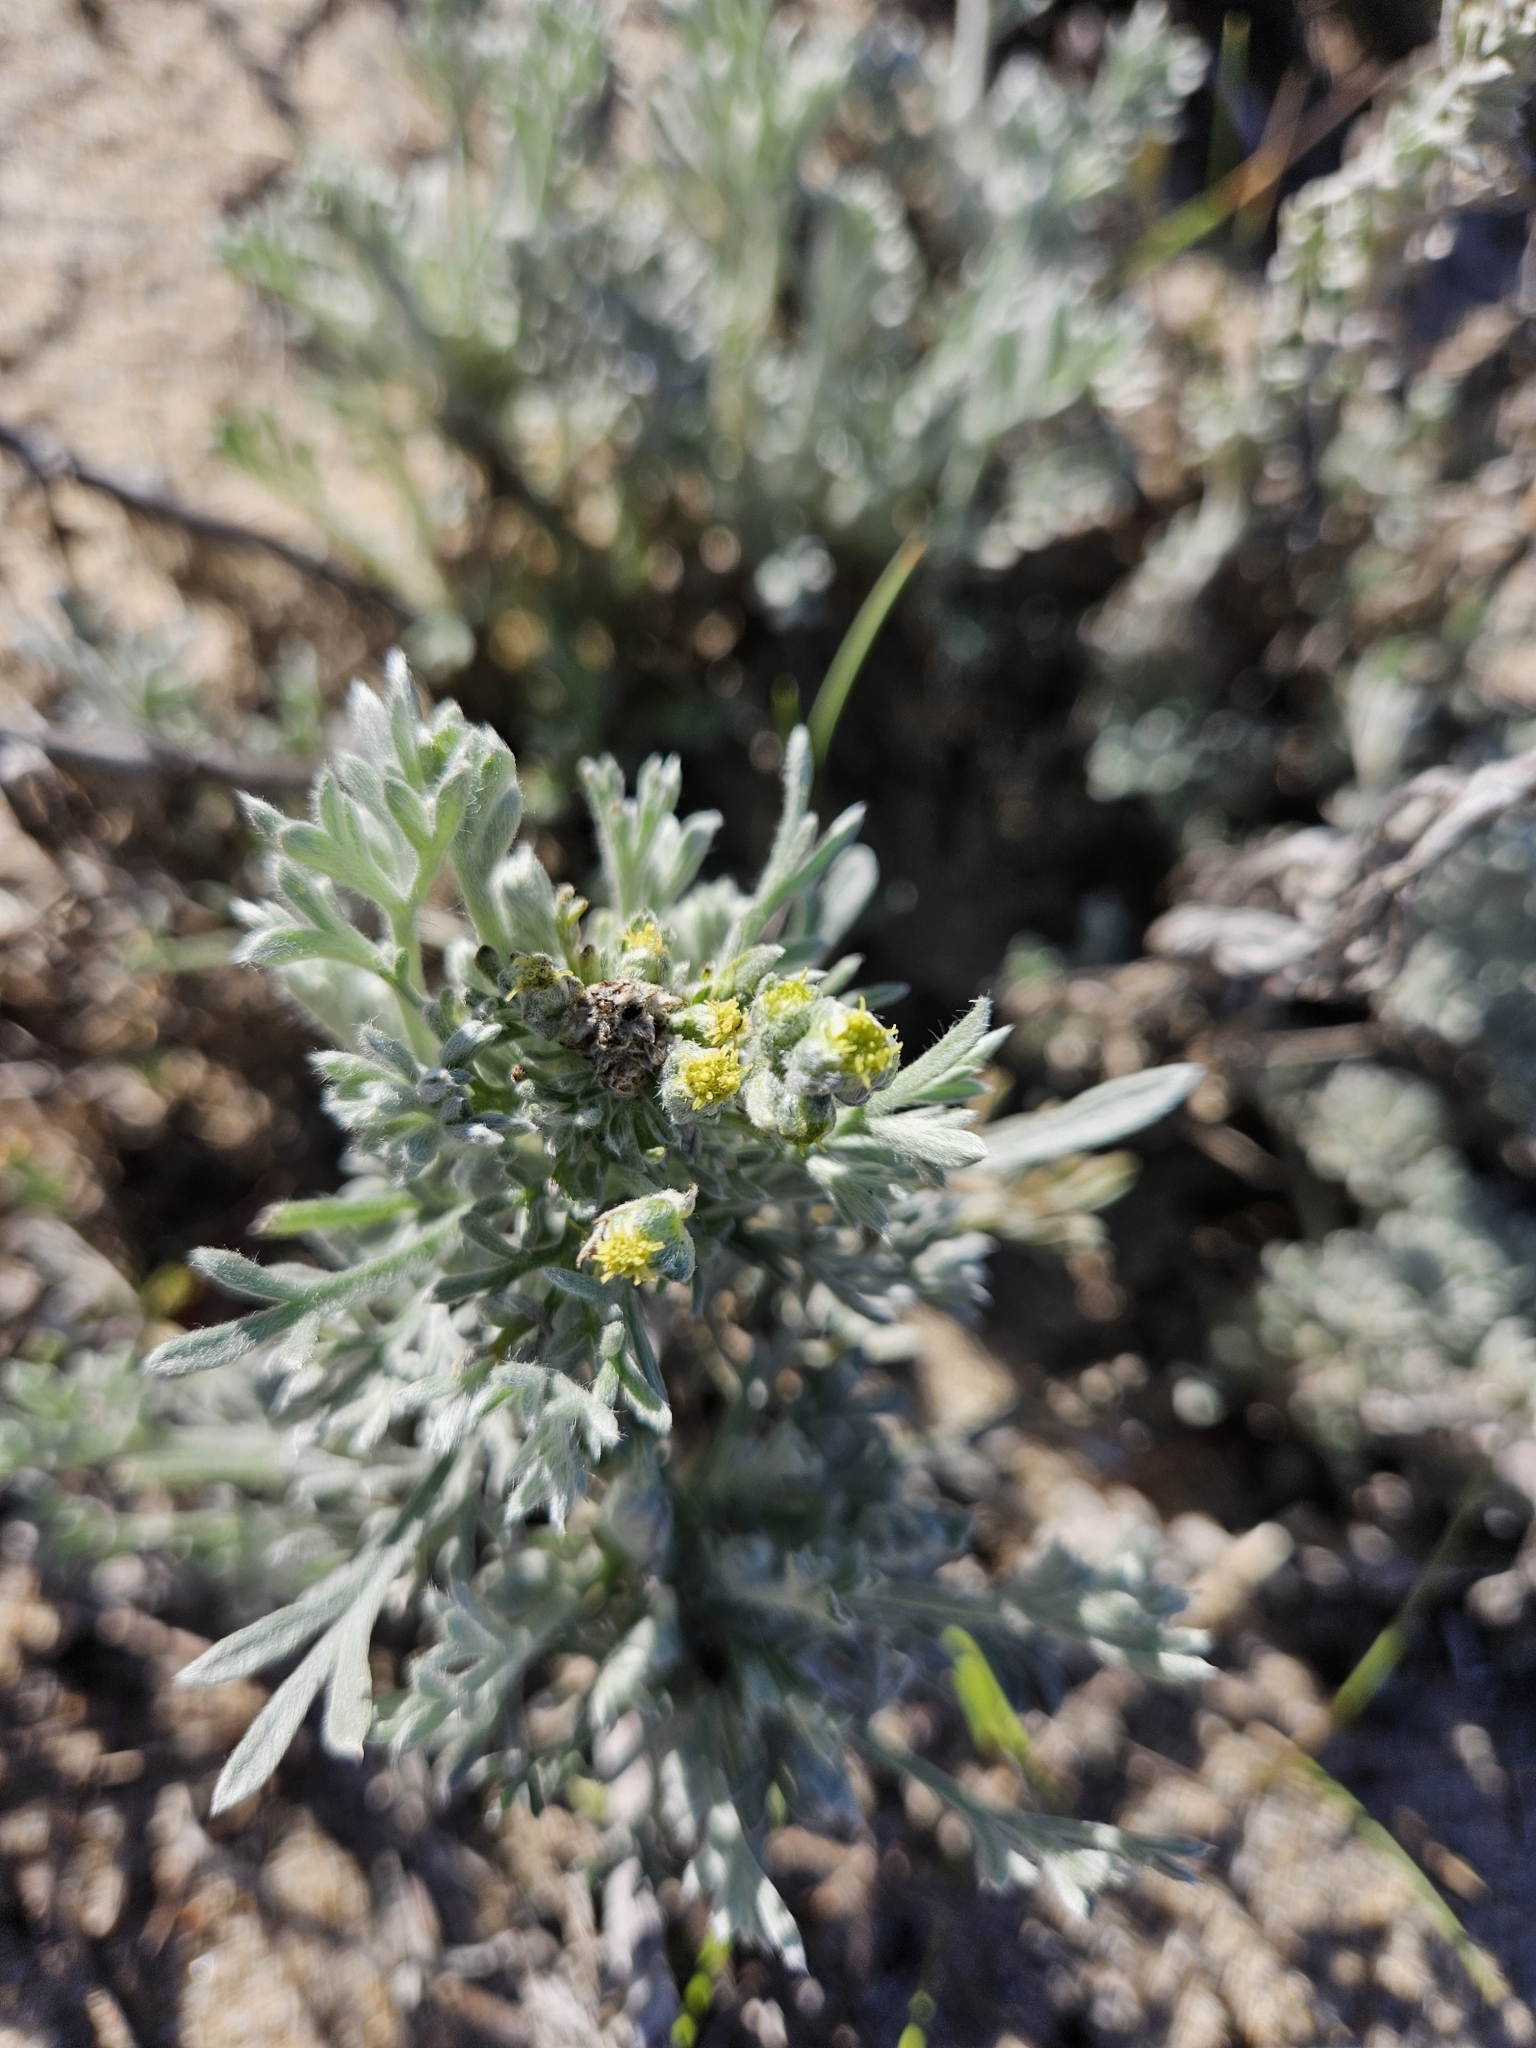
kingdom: Plantae
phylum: Tracheophyta
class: Magnoliopsida
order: Asterales
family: Asteraceae
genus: Artemisia
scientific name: Artemisia pycnocephala
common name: Coastal sagewort
